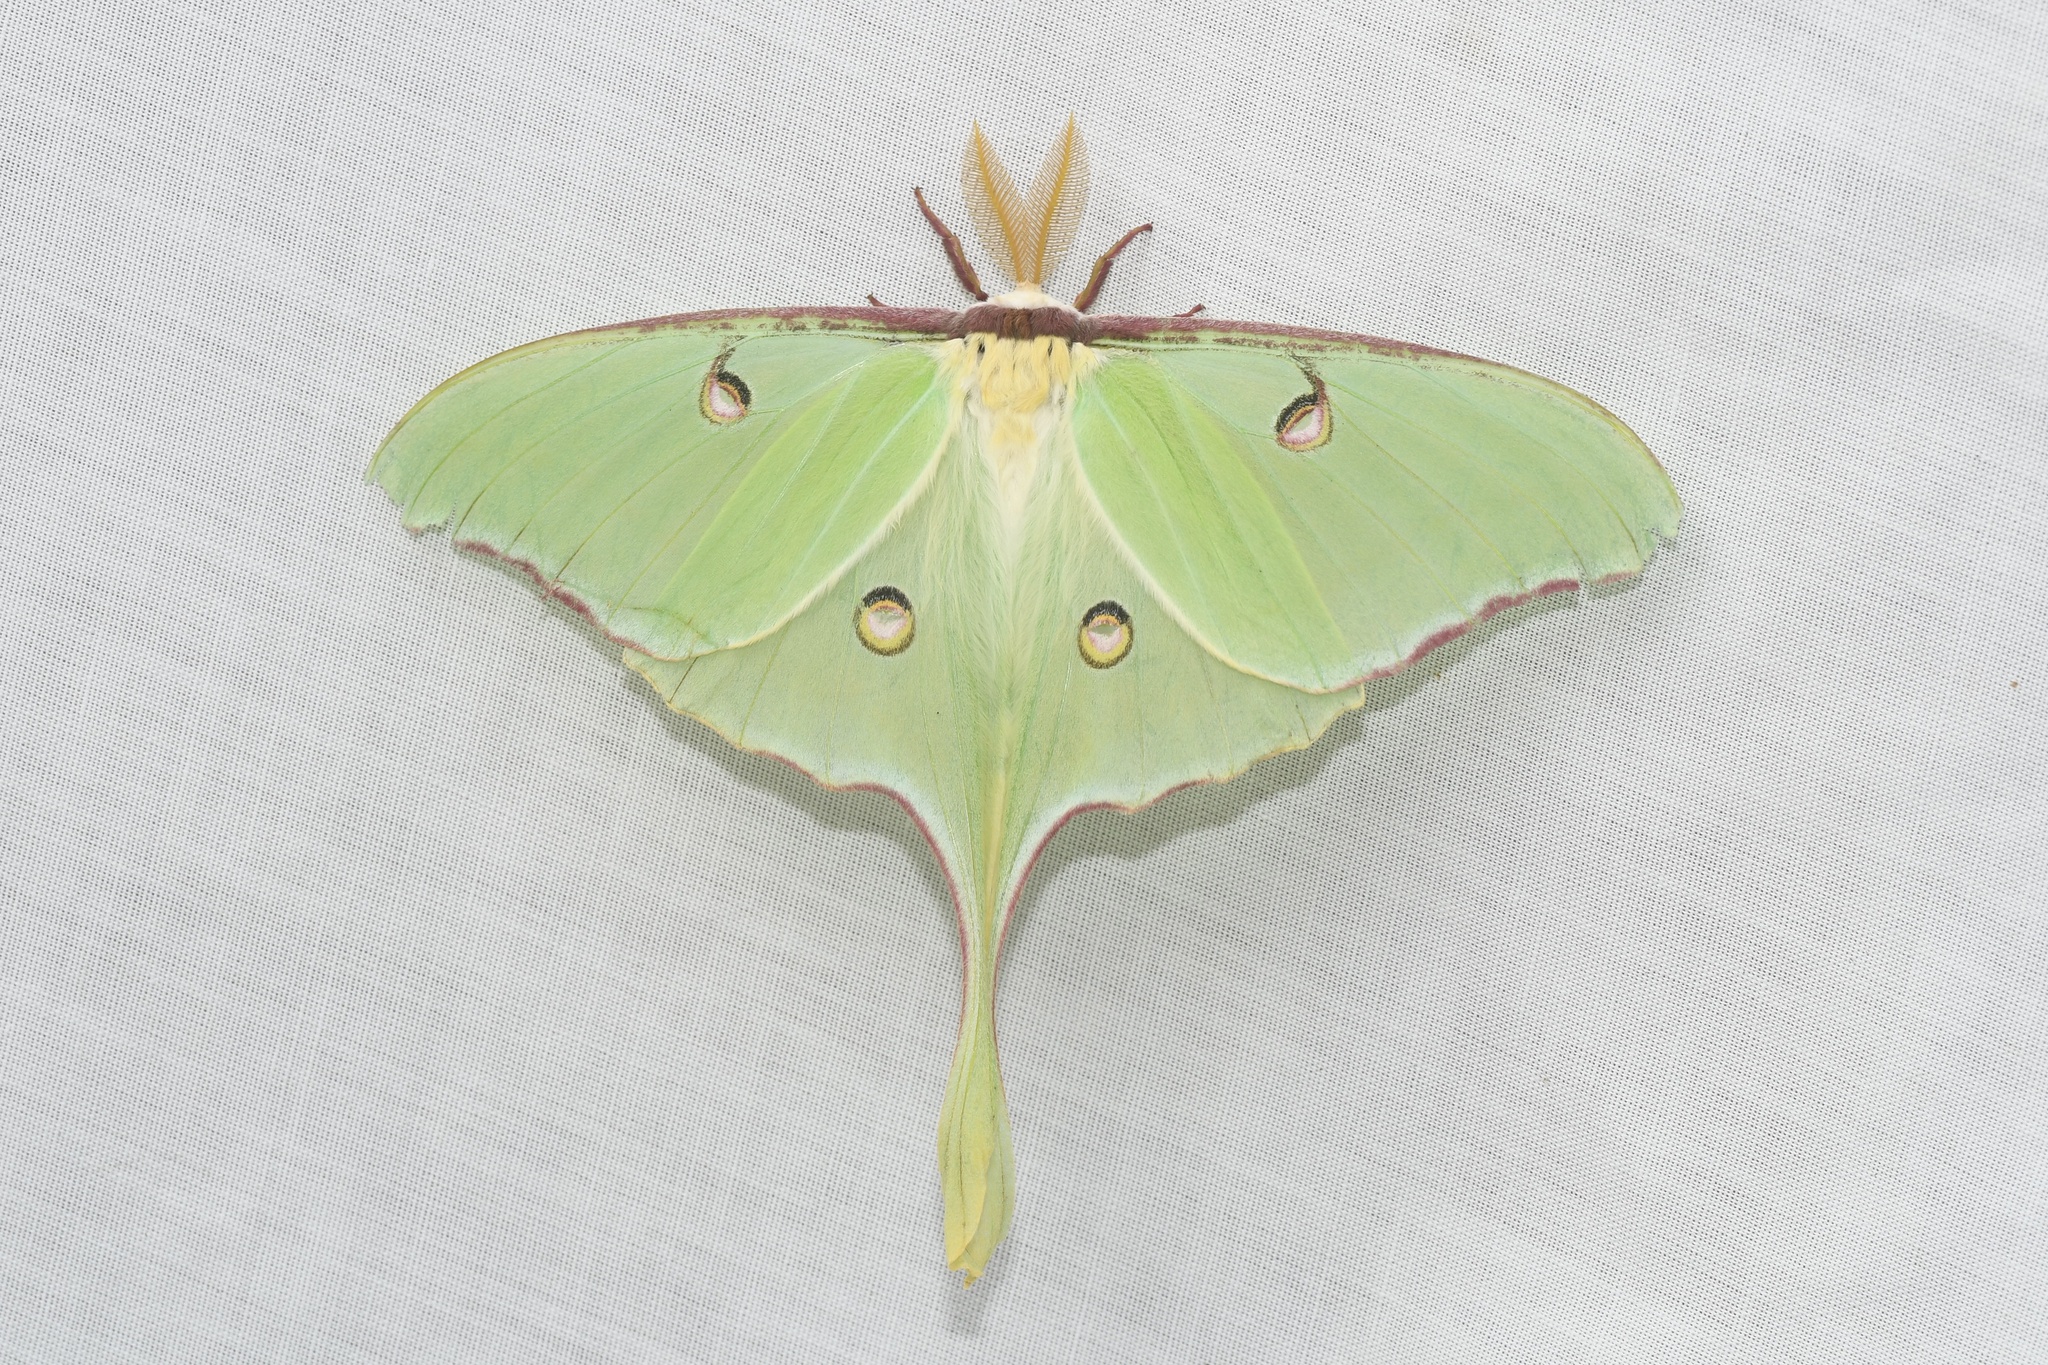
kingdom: Animalia
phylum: Arthropoda
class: Insecta
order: Lepidoptera
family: Saturniidae
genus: Actias
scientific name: Actias luna
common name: Luna moth
